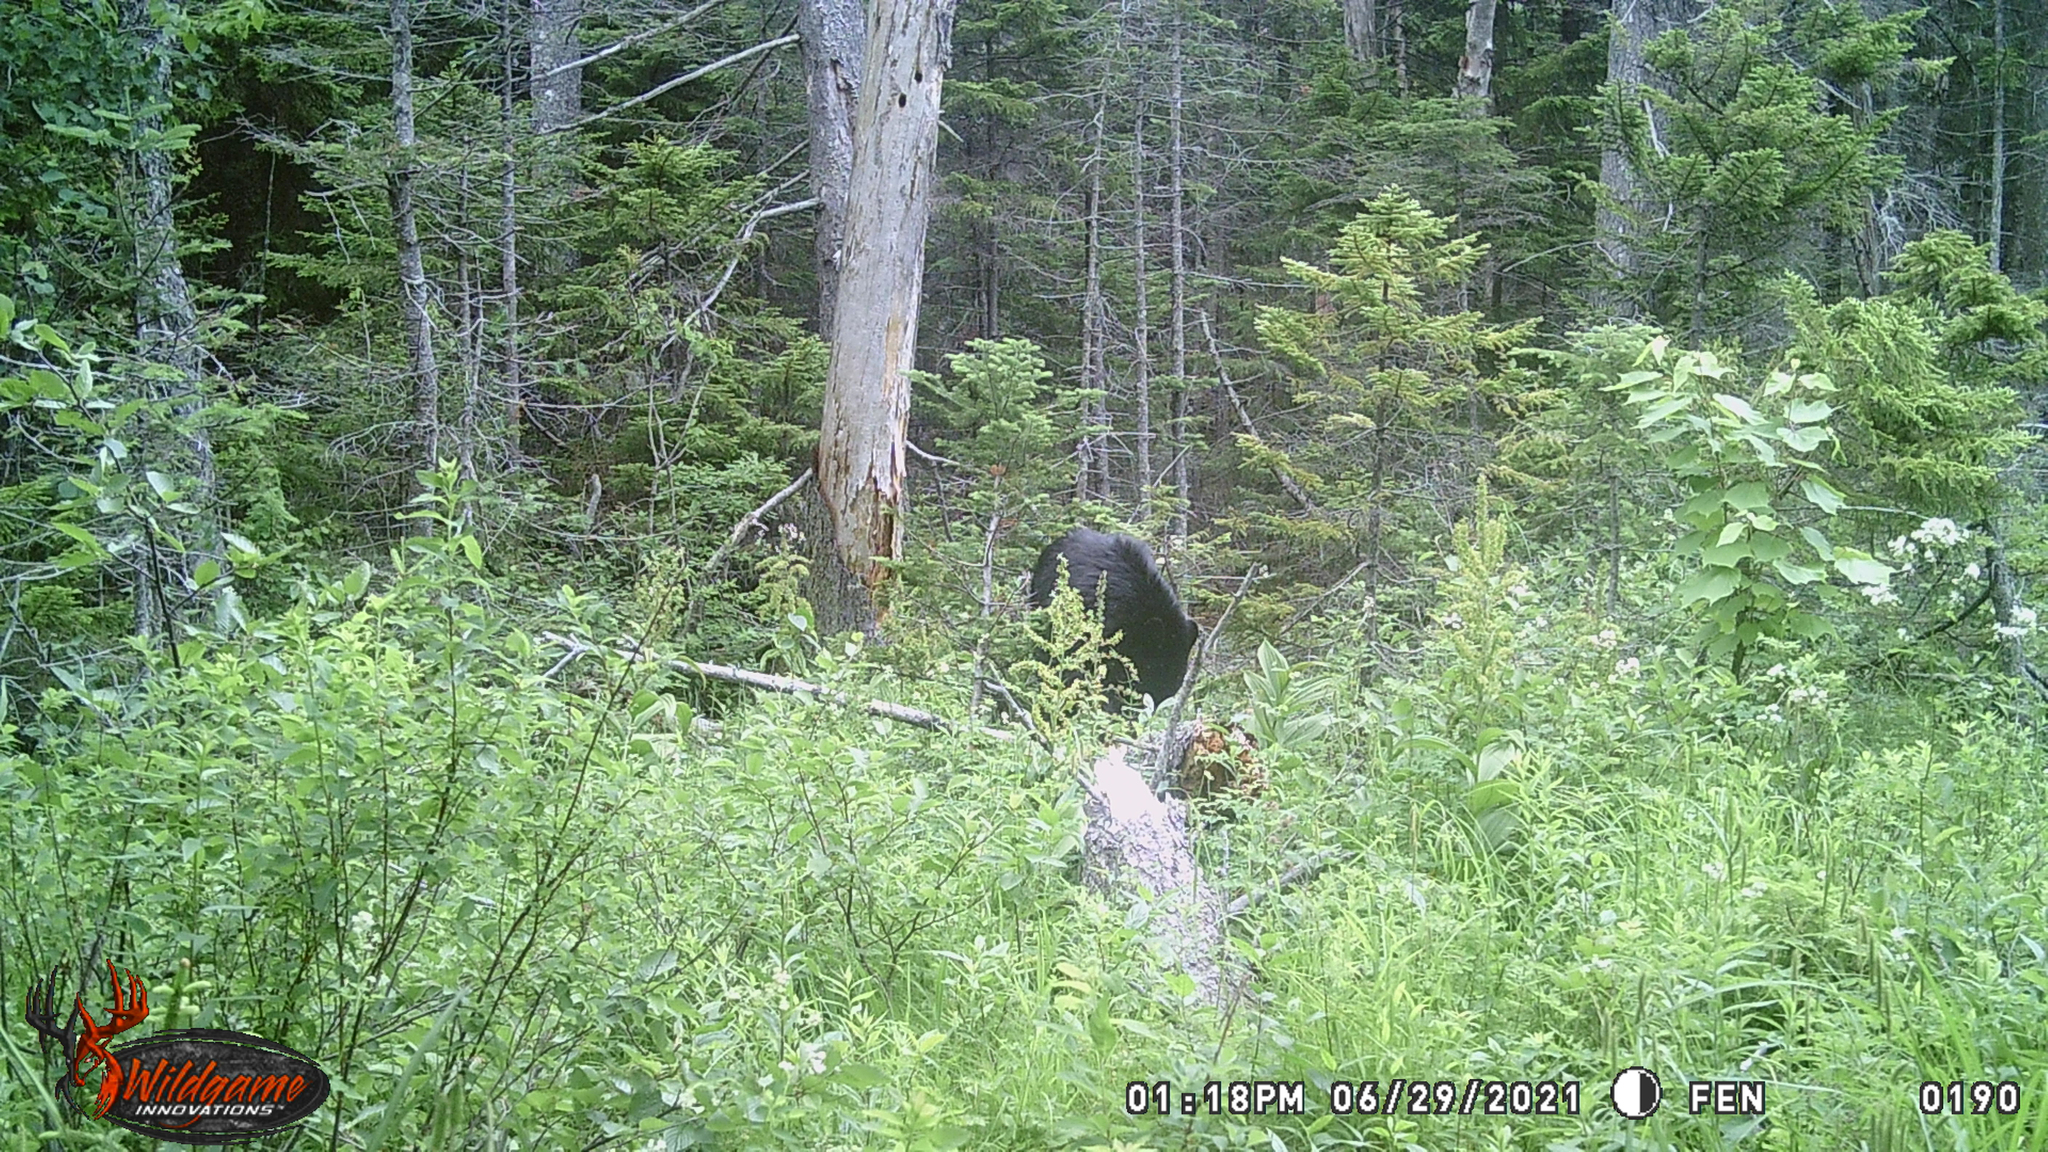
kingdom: Animalia
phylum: Chordata
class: Mammalia
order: Carnivora
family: Ursidae
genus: Ursus
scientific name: Ursus americanus
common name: American black bear
